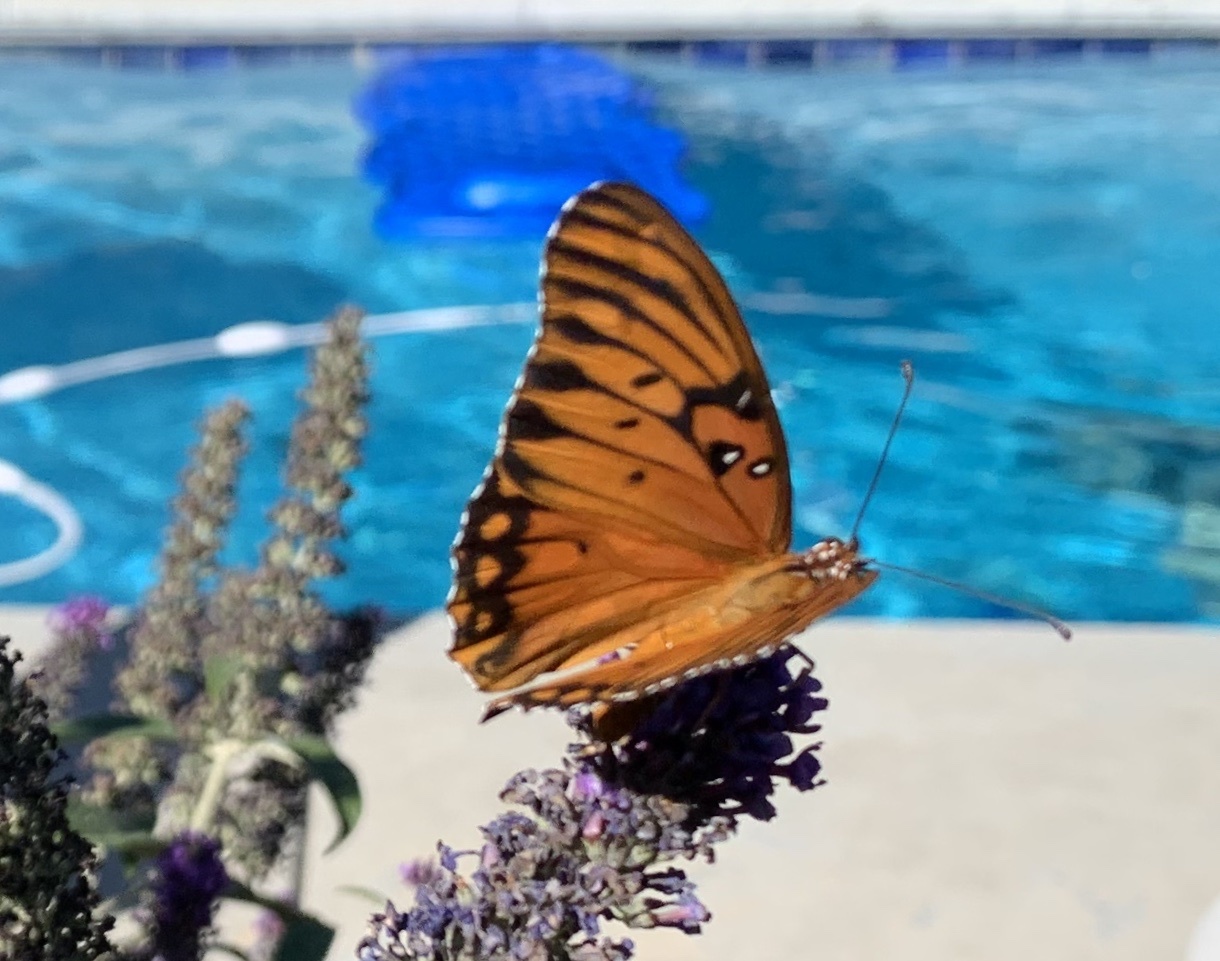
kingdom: Animalia
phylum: Arthropoda
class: Insecta
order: Lepidoptera
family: Nymphalidae
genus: Dione
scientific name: Dione vanillae
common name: Gulf fritillary
